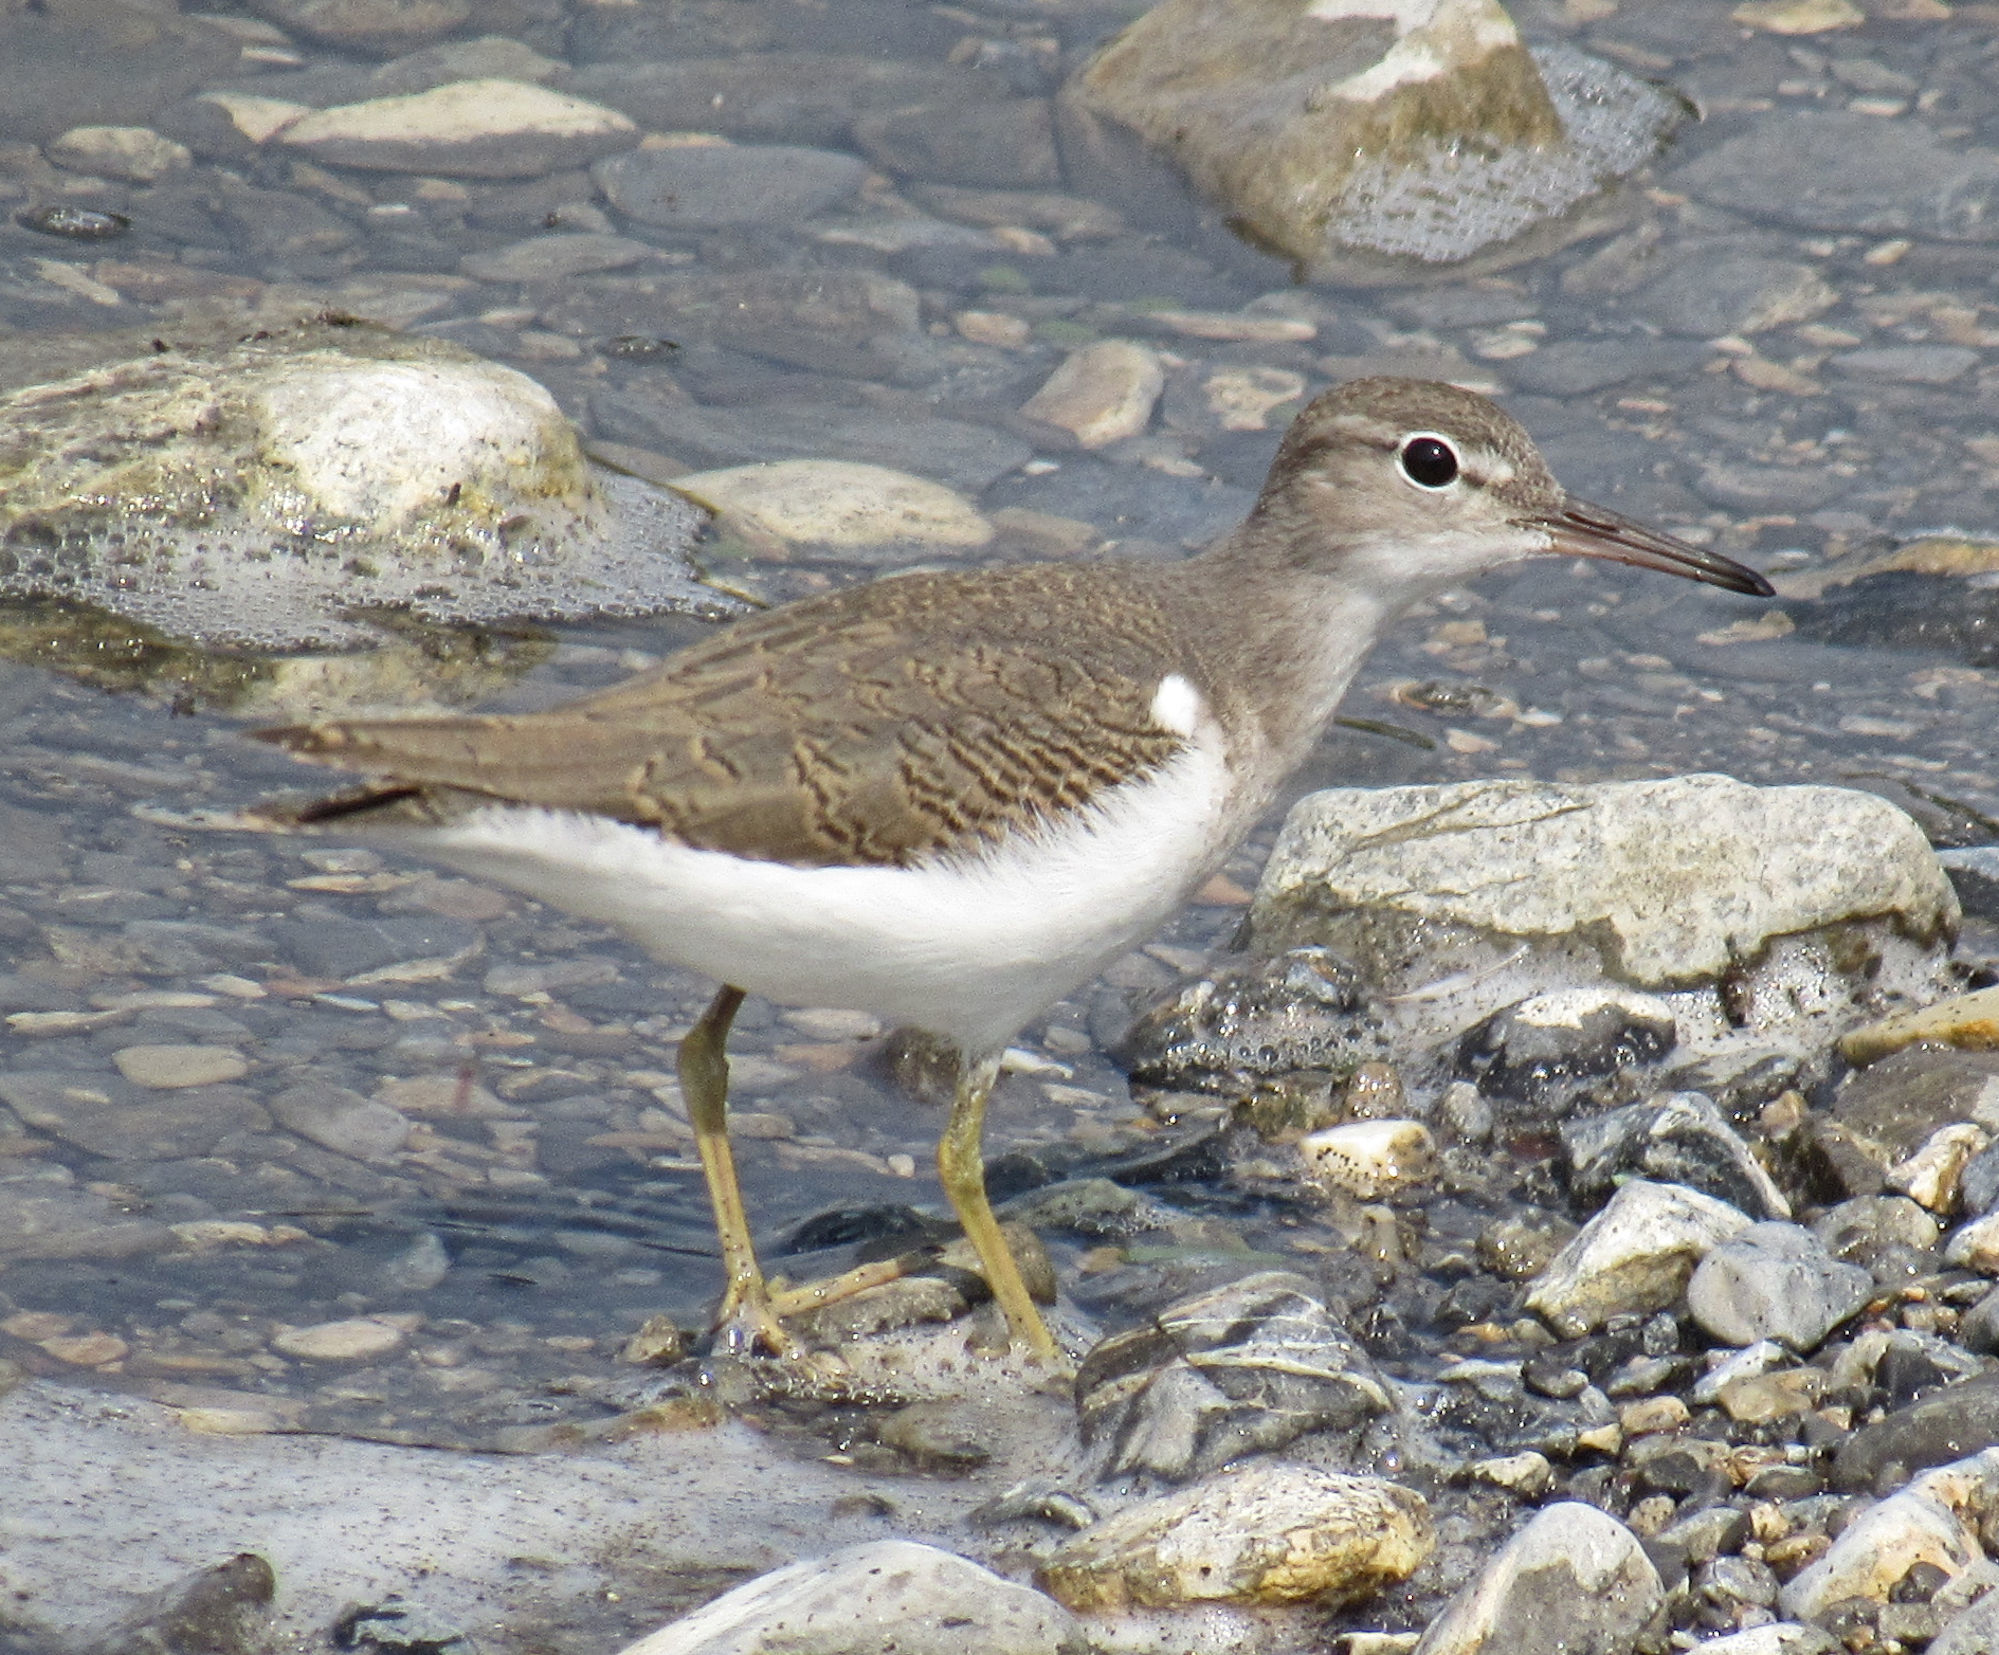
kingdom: Animalia
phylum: Chordata
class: Aves
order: Charadriiformes
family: Scolopacidae
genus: Actitis
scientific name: Actitis macularius
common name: Spotted sandpiper
